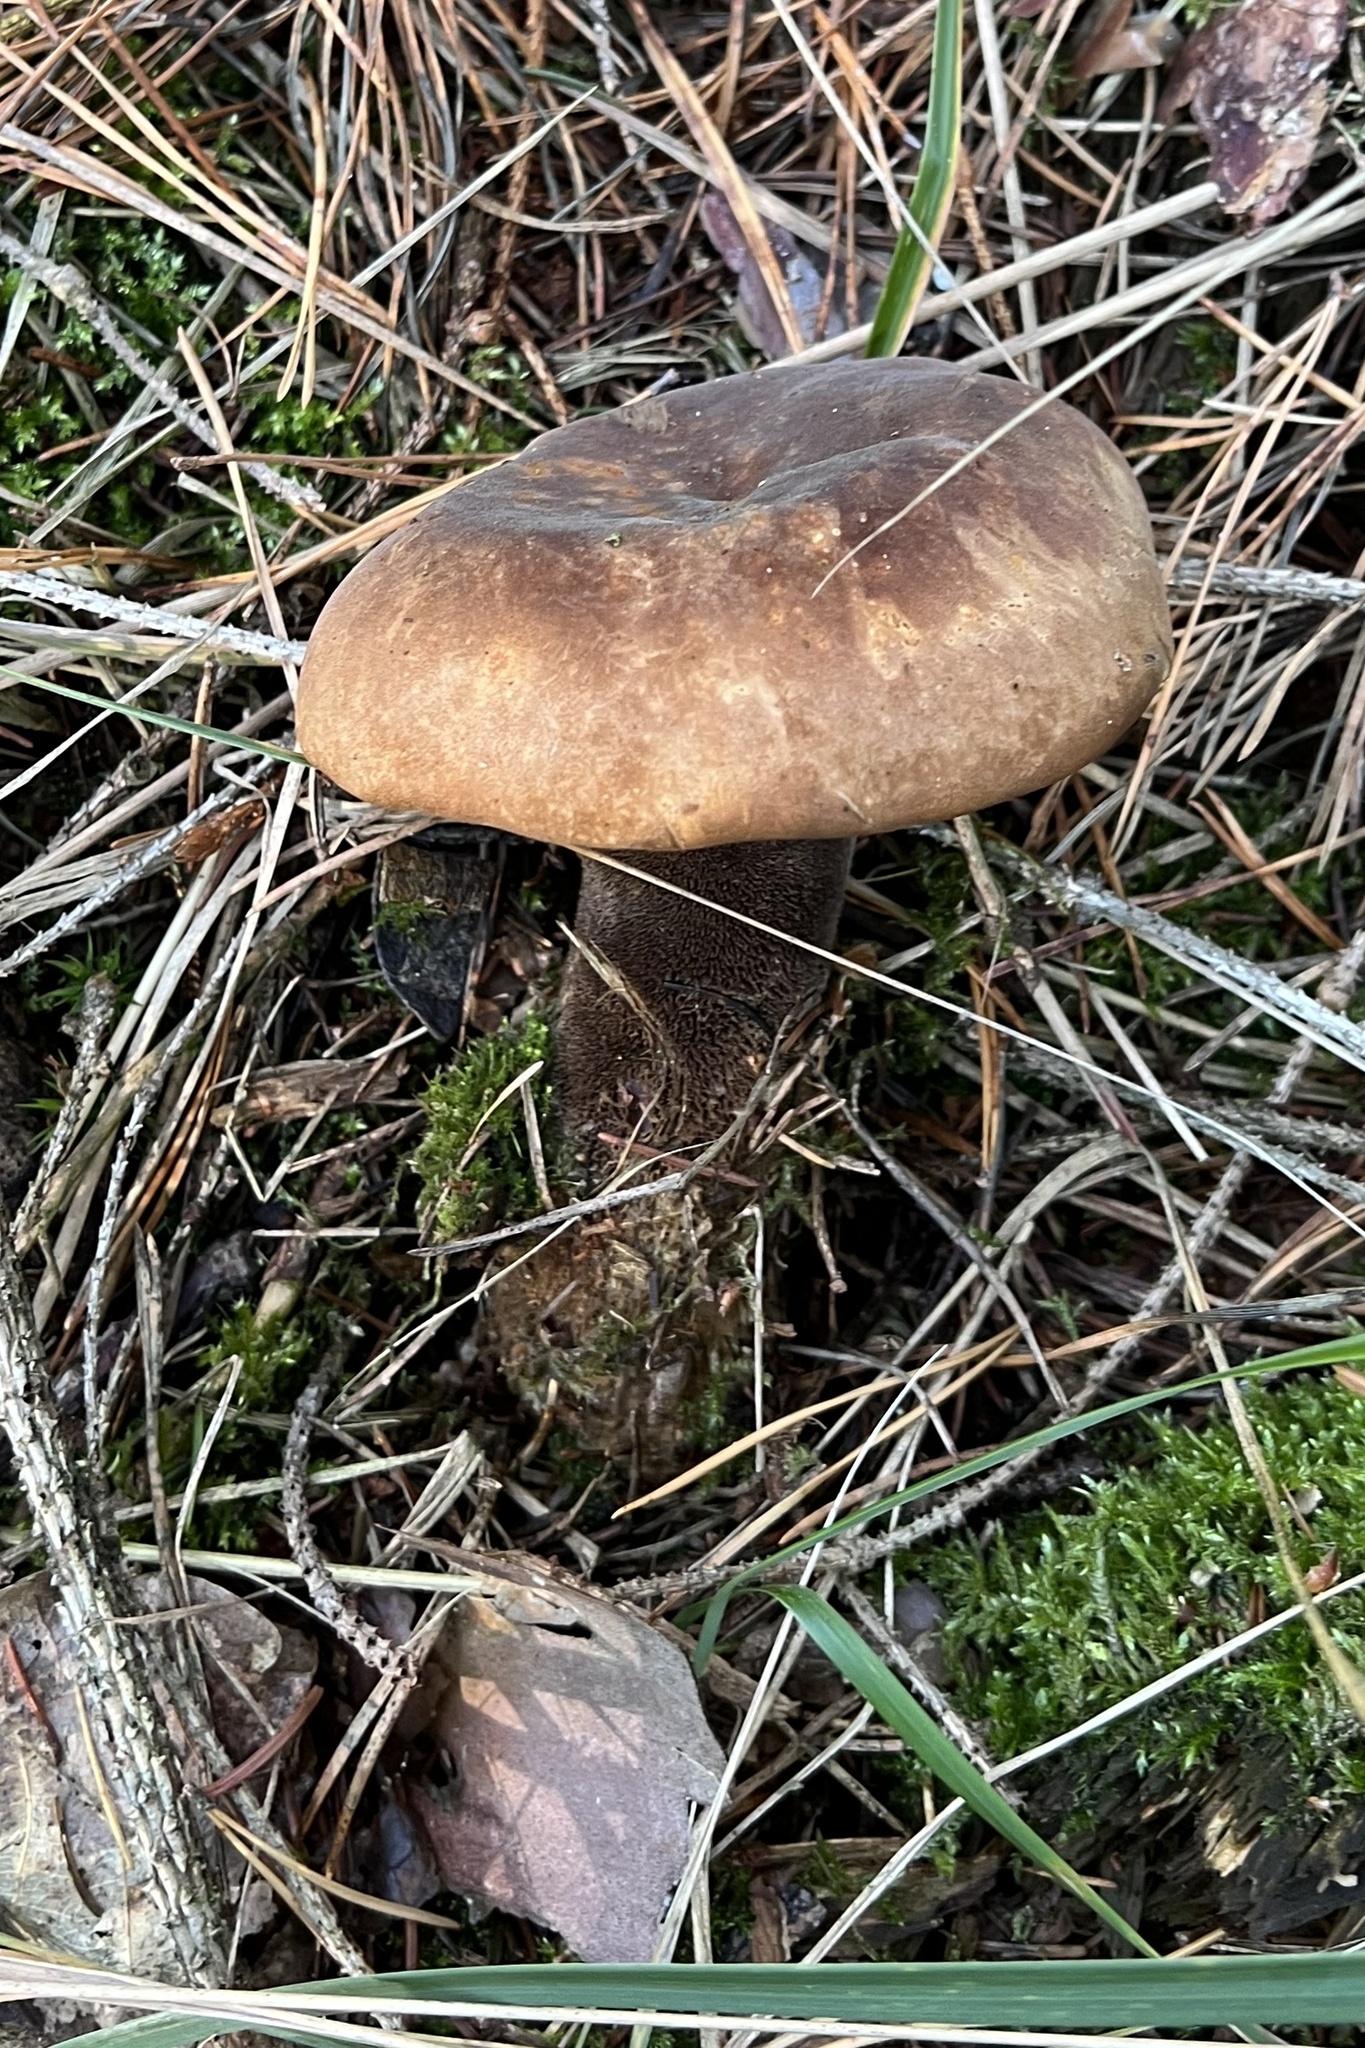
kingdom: Fungi
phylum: Basidiomycota
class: Agaricomycetes
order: Boletales
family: Tapinellaceae
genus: Tapinella
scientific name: Tapinella atrotomentosa
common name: Velvet rollrim
